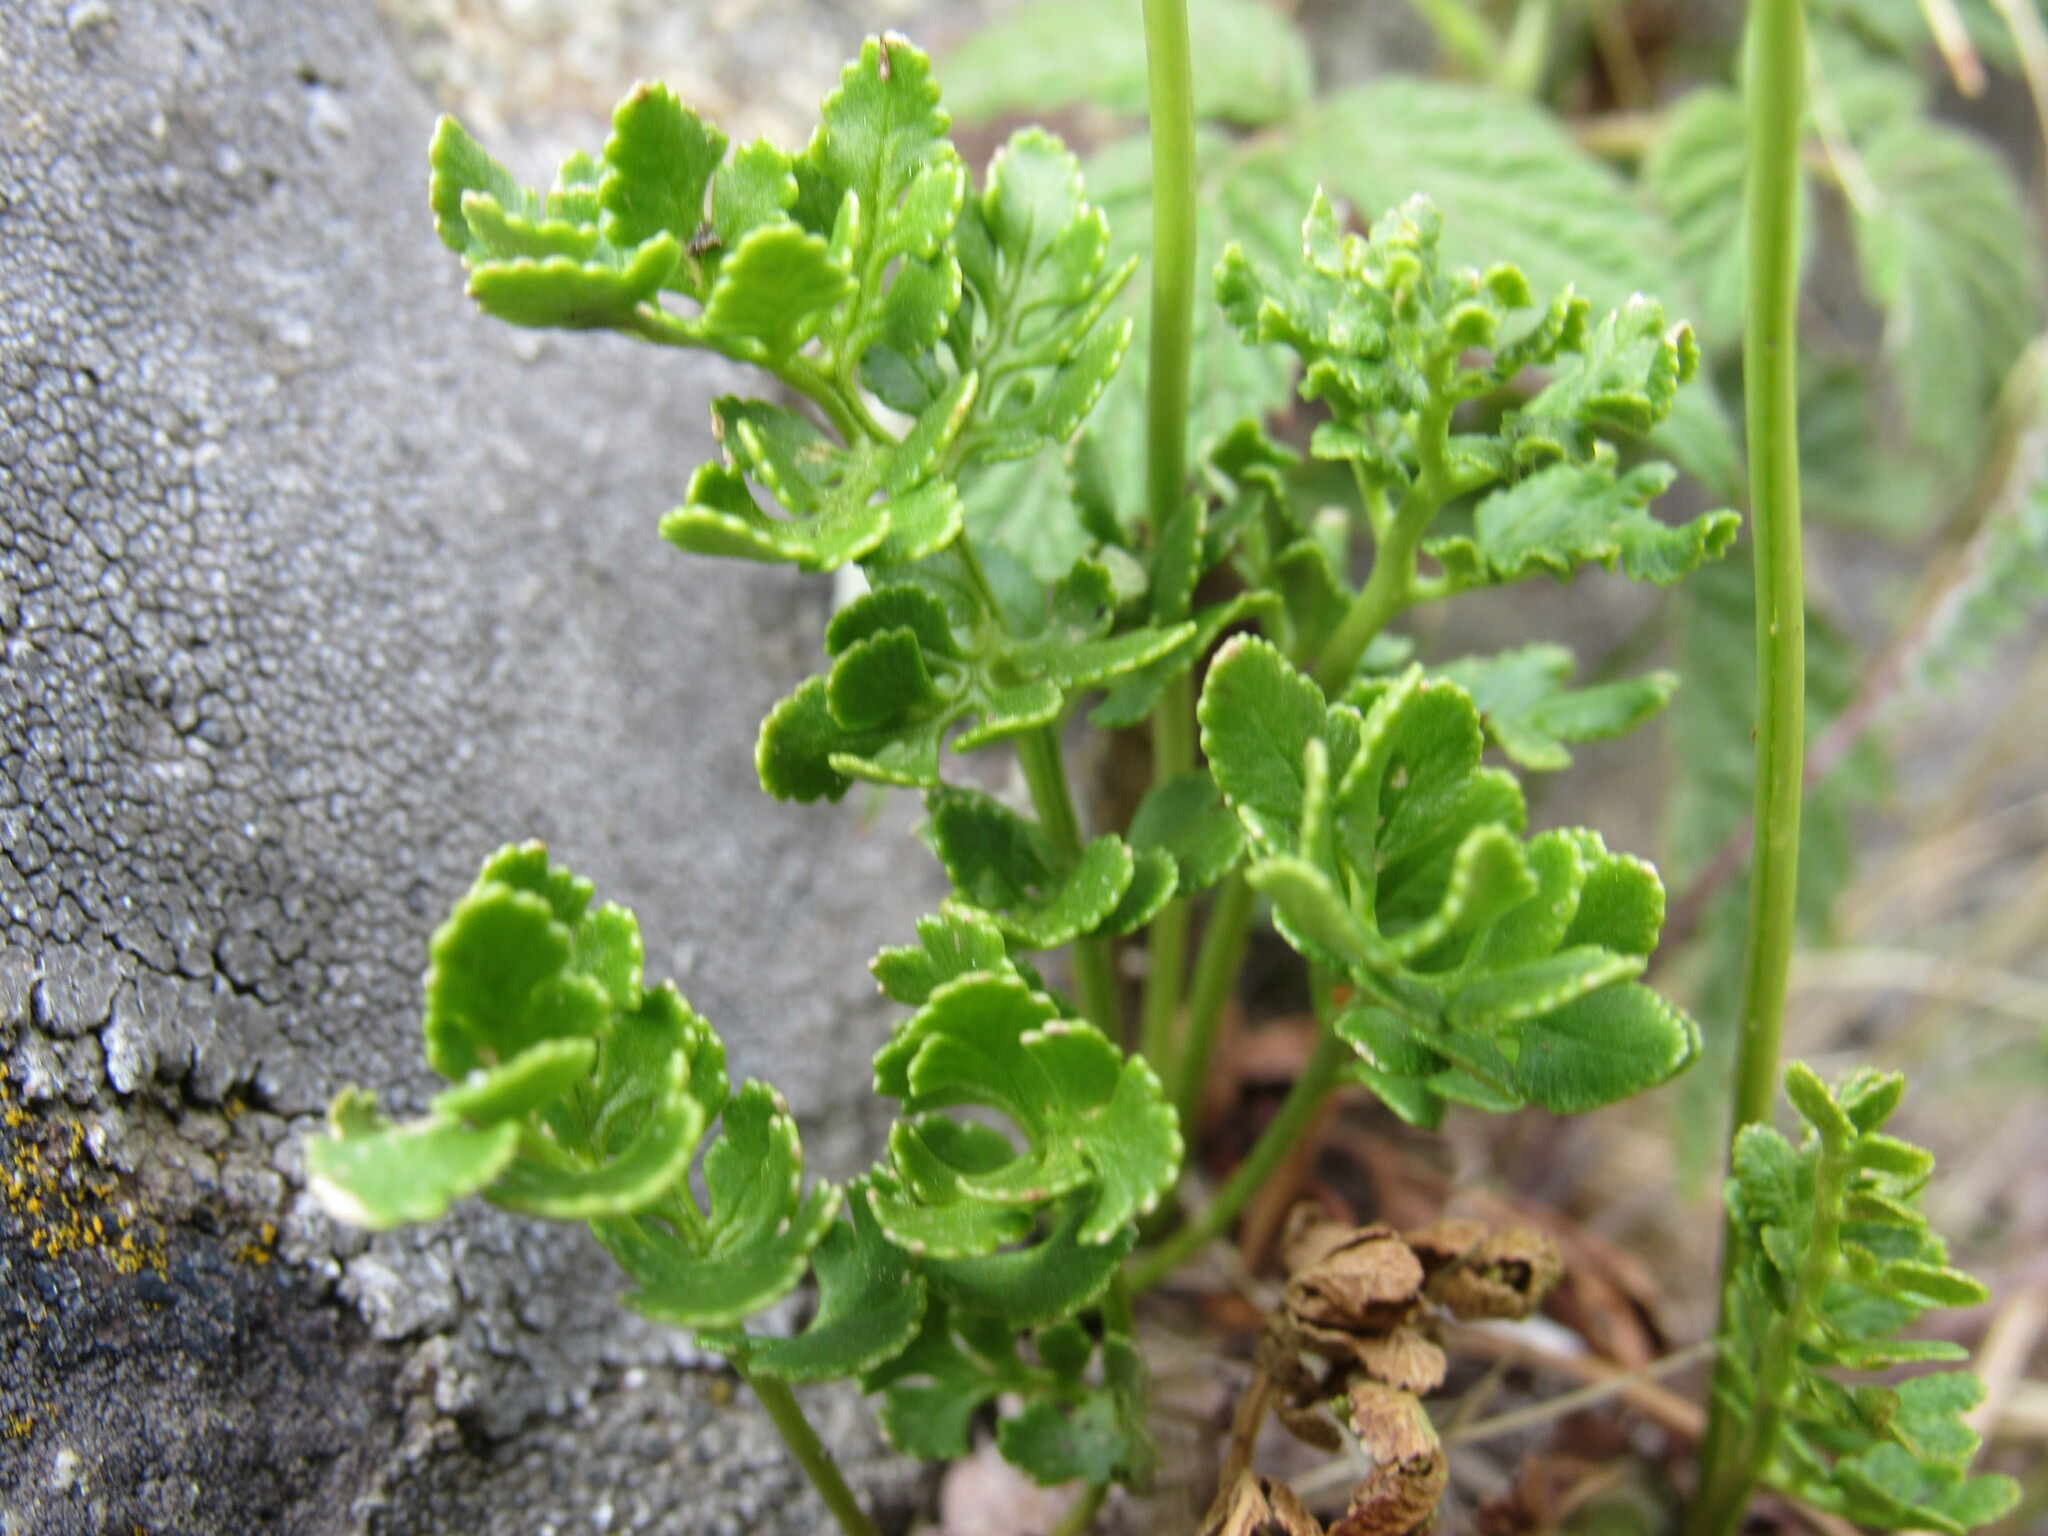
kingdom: Plantae
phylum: Tracheophyta
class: Polypodiopsida
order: Polypodiales
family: Pteridaceae
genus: Cryptogramma
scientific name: Cryptogramma acrostichoides
